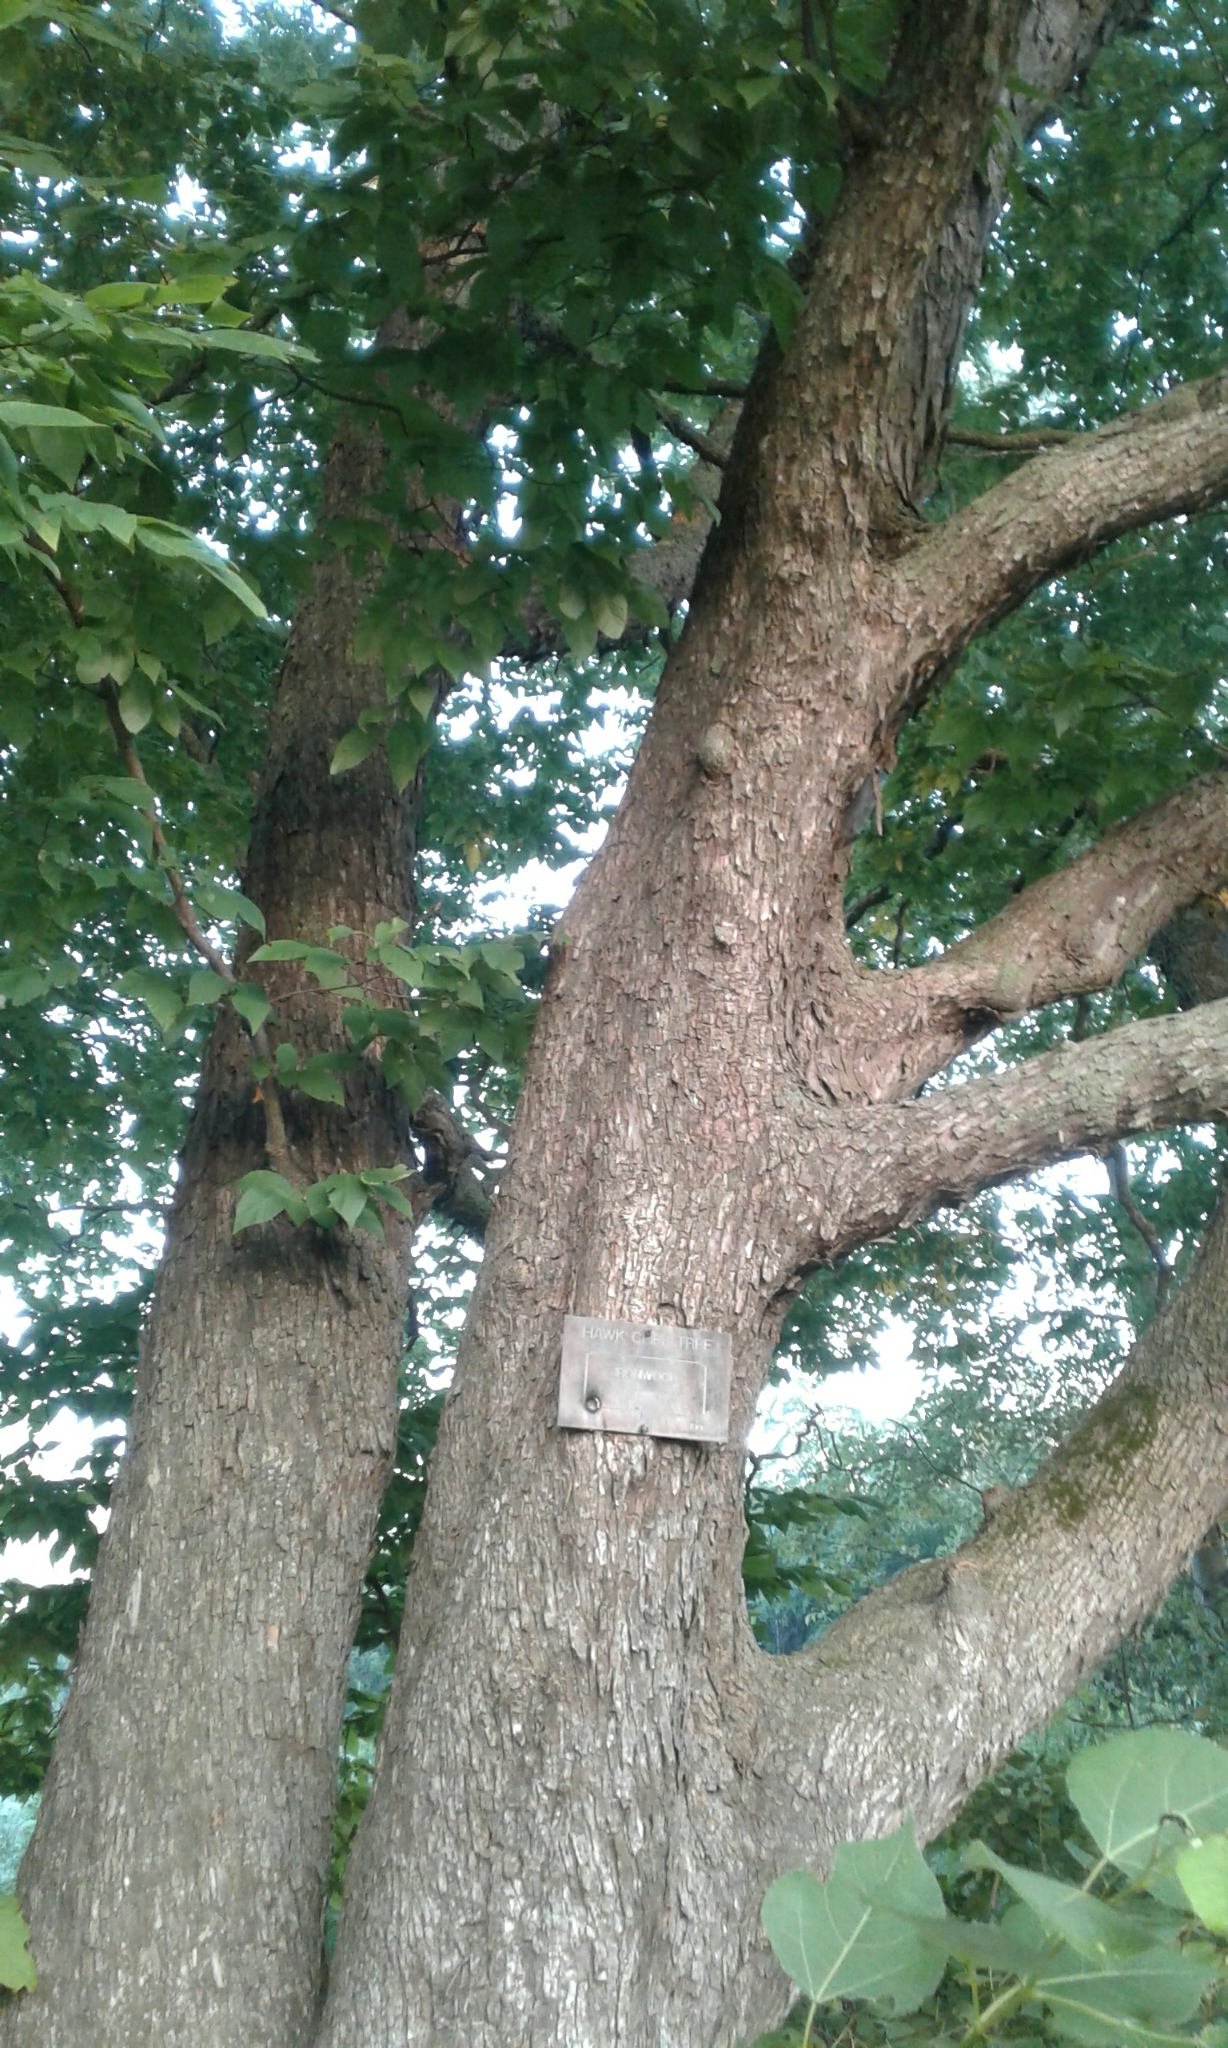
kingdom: Plantae
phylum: Tracheophyta
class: Magnoliopsida
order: Fagales
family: Betulaceae
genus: Ostrya
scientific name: Ostrya virginiana
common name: Ironwood
